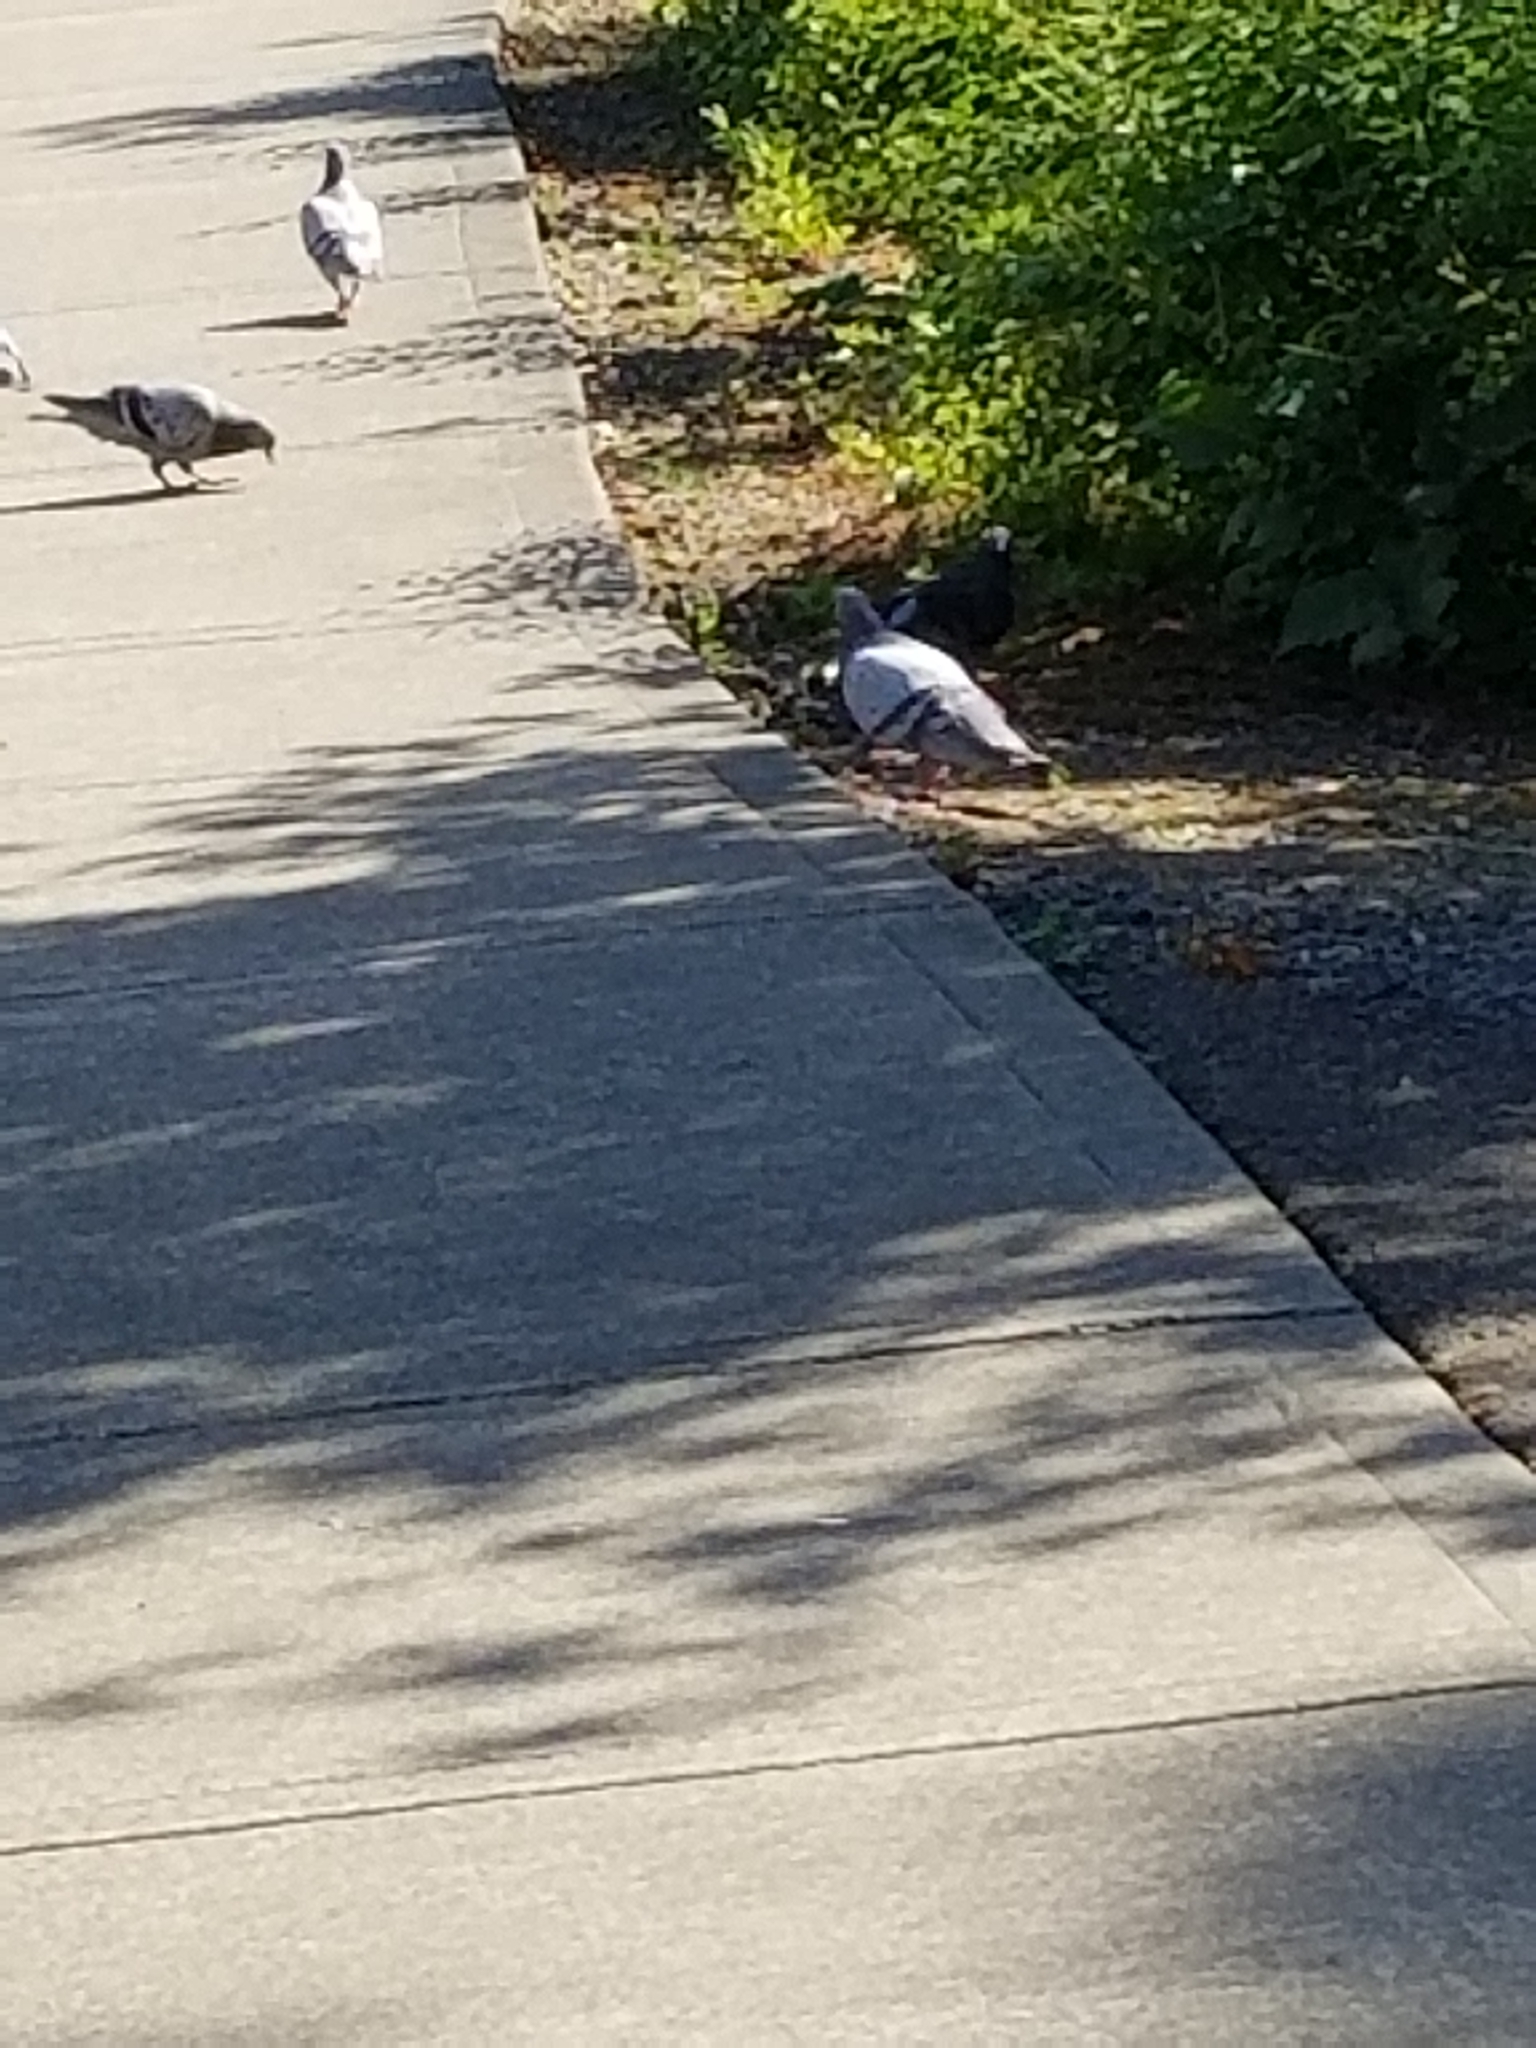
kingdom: Animalia
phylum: Chordata
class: Aves
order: Columbiformes
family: Columbidae
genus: Columba
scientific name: Columba livia
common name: Rock pigeon
